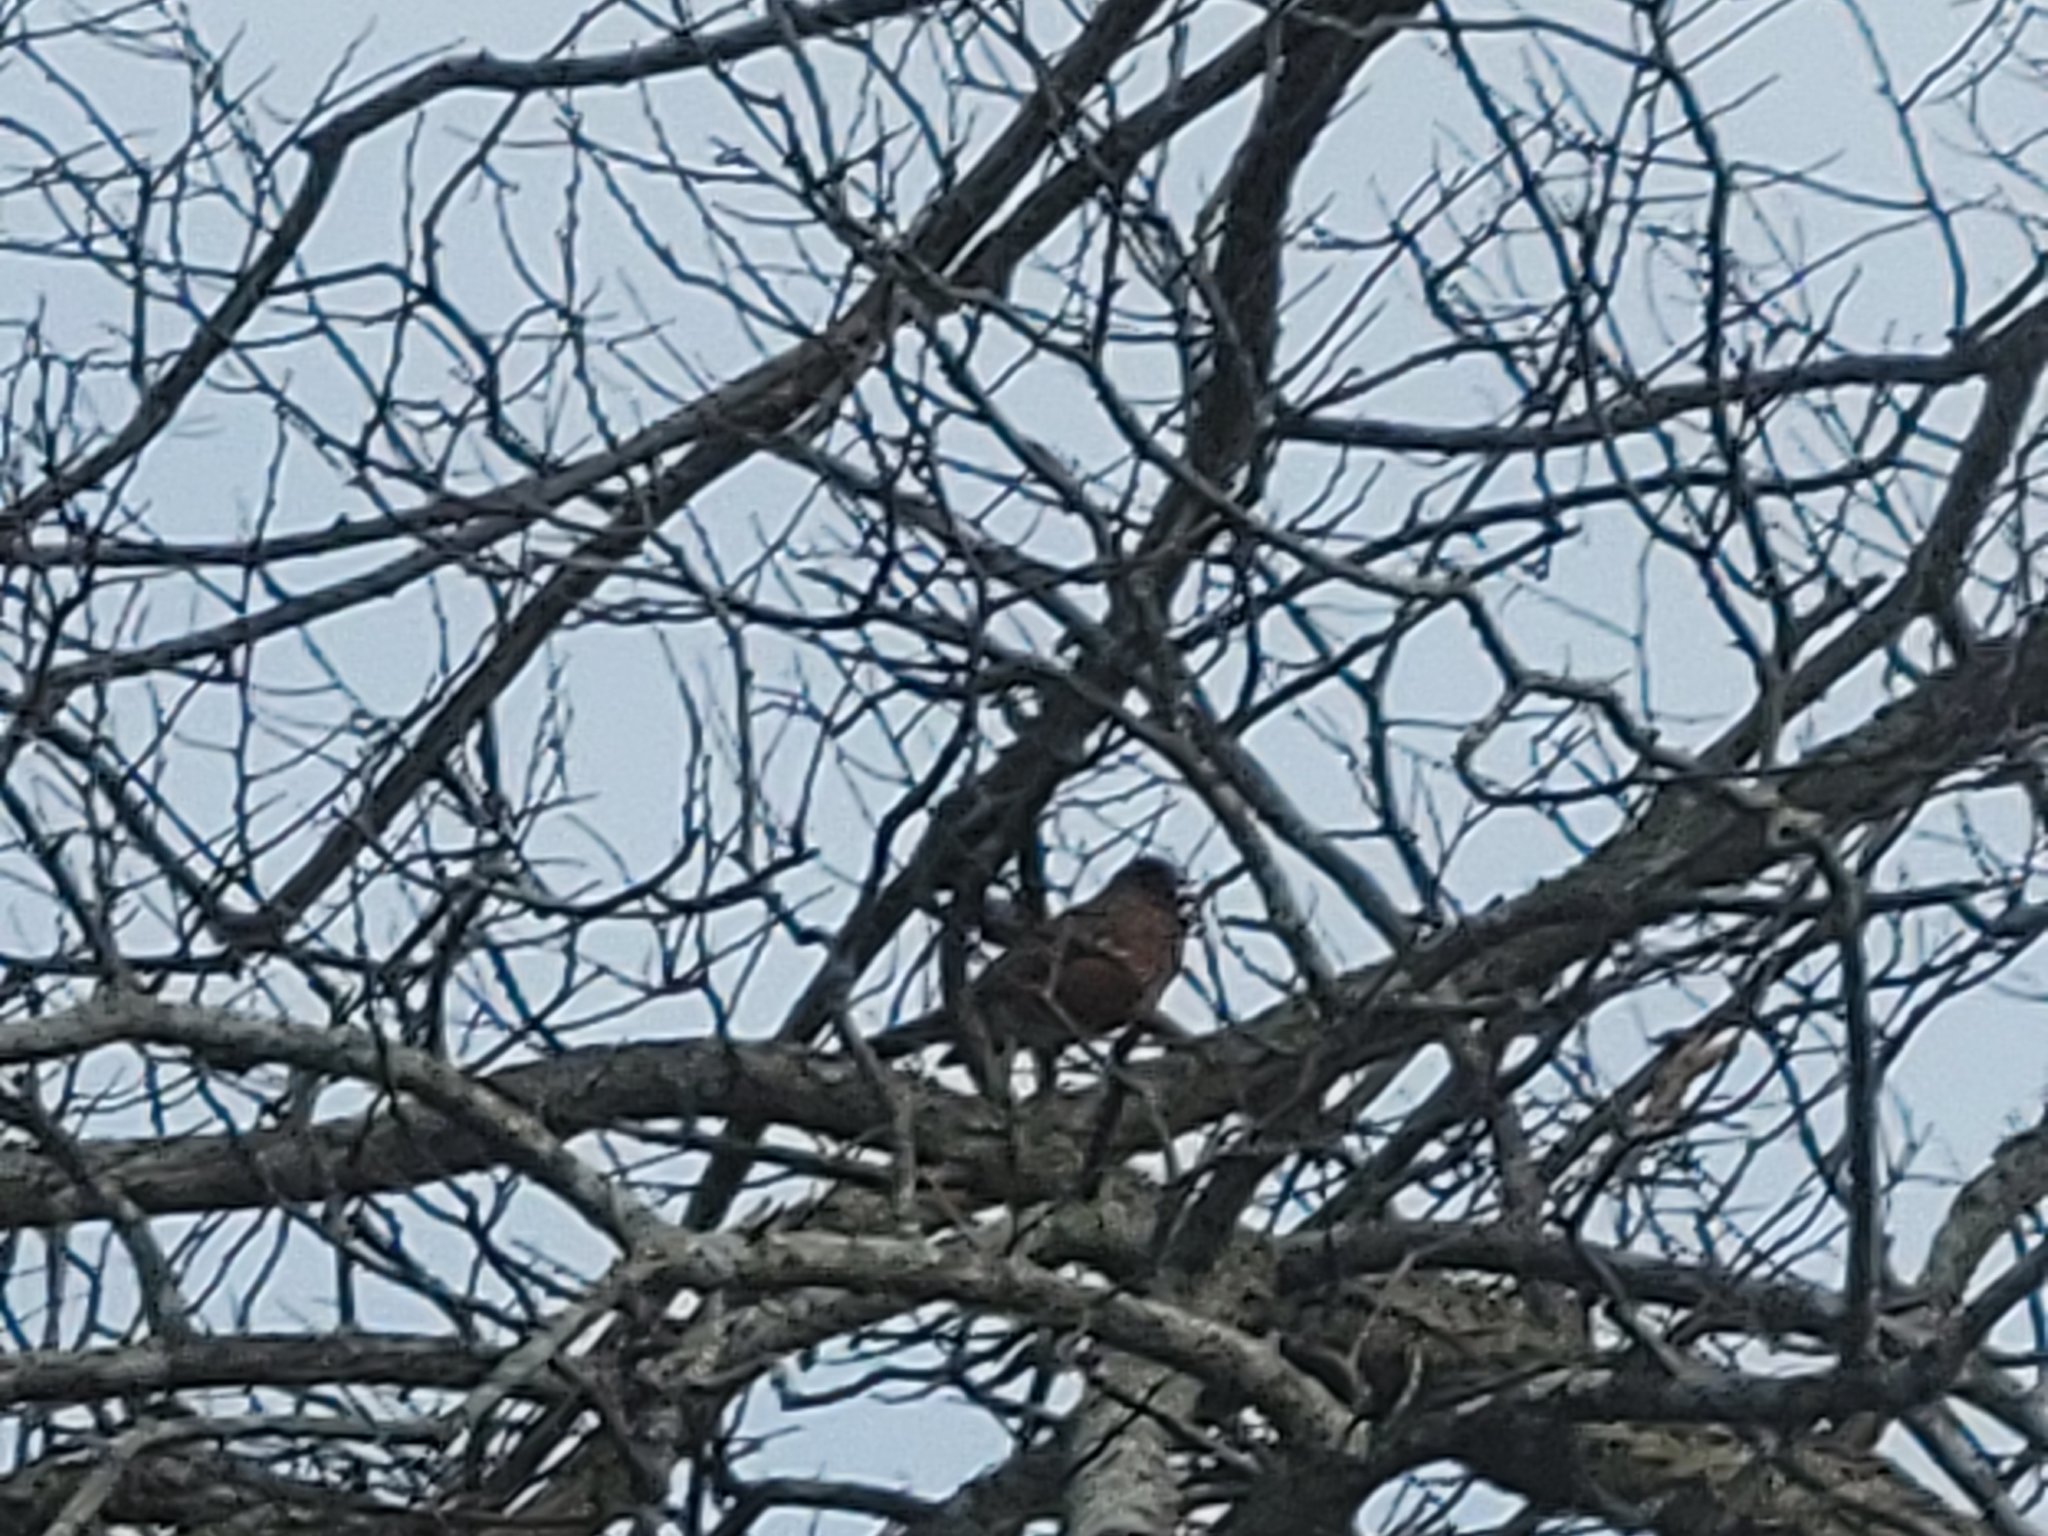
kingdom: Animalia
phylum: Chordata
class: Aves
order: Passeriformes
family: Turdidae
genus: Turdus
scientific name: Turdus migratorius
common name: American robin
